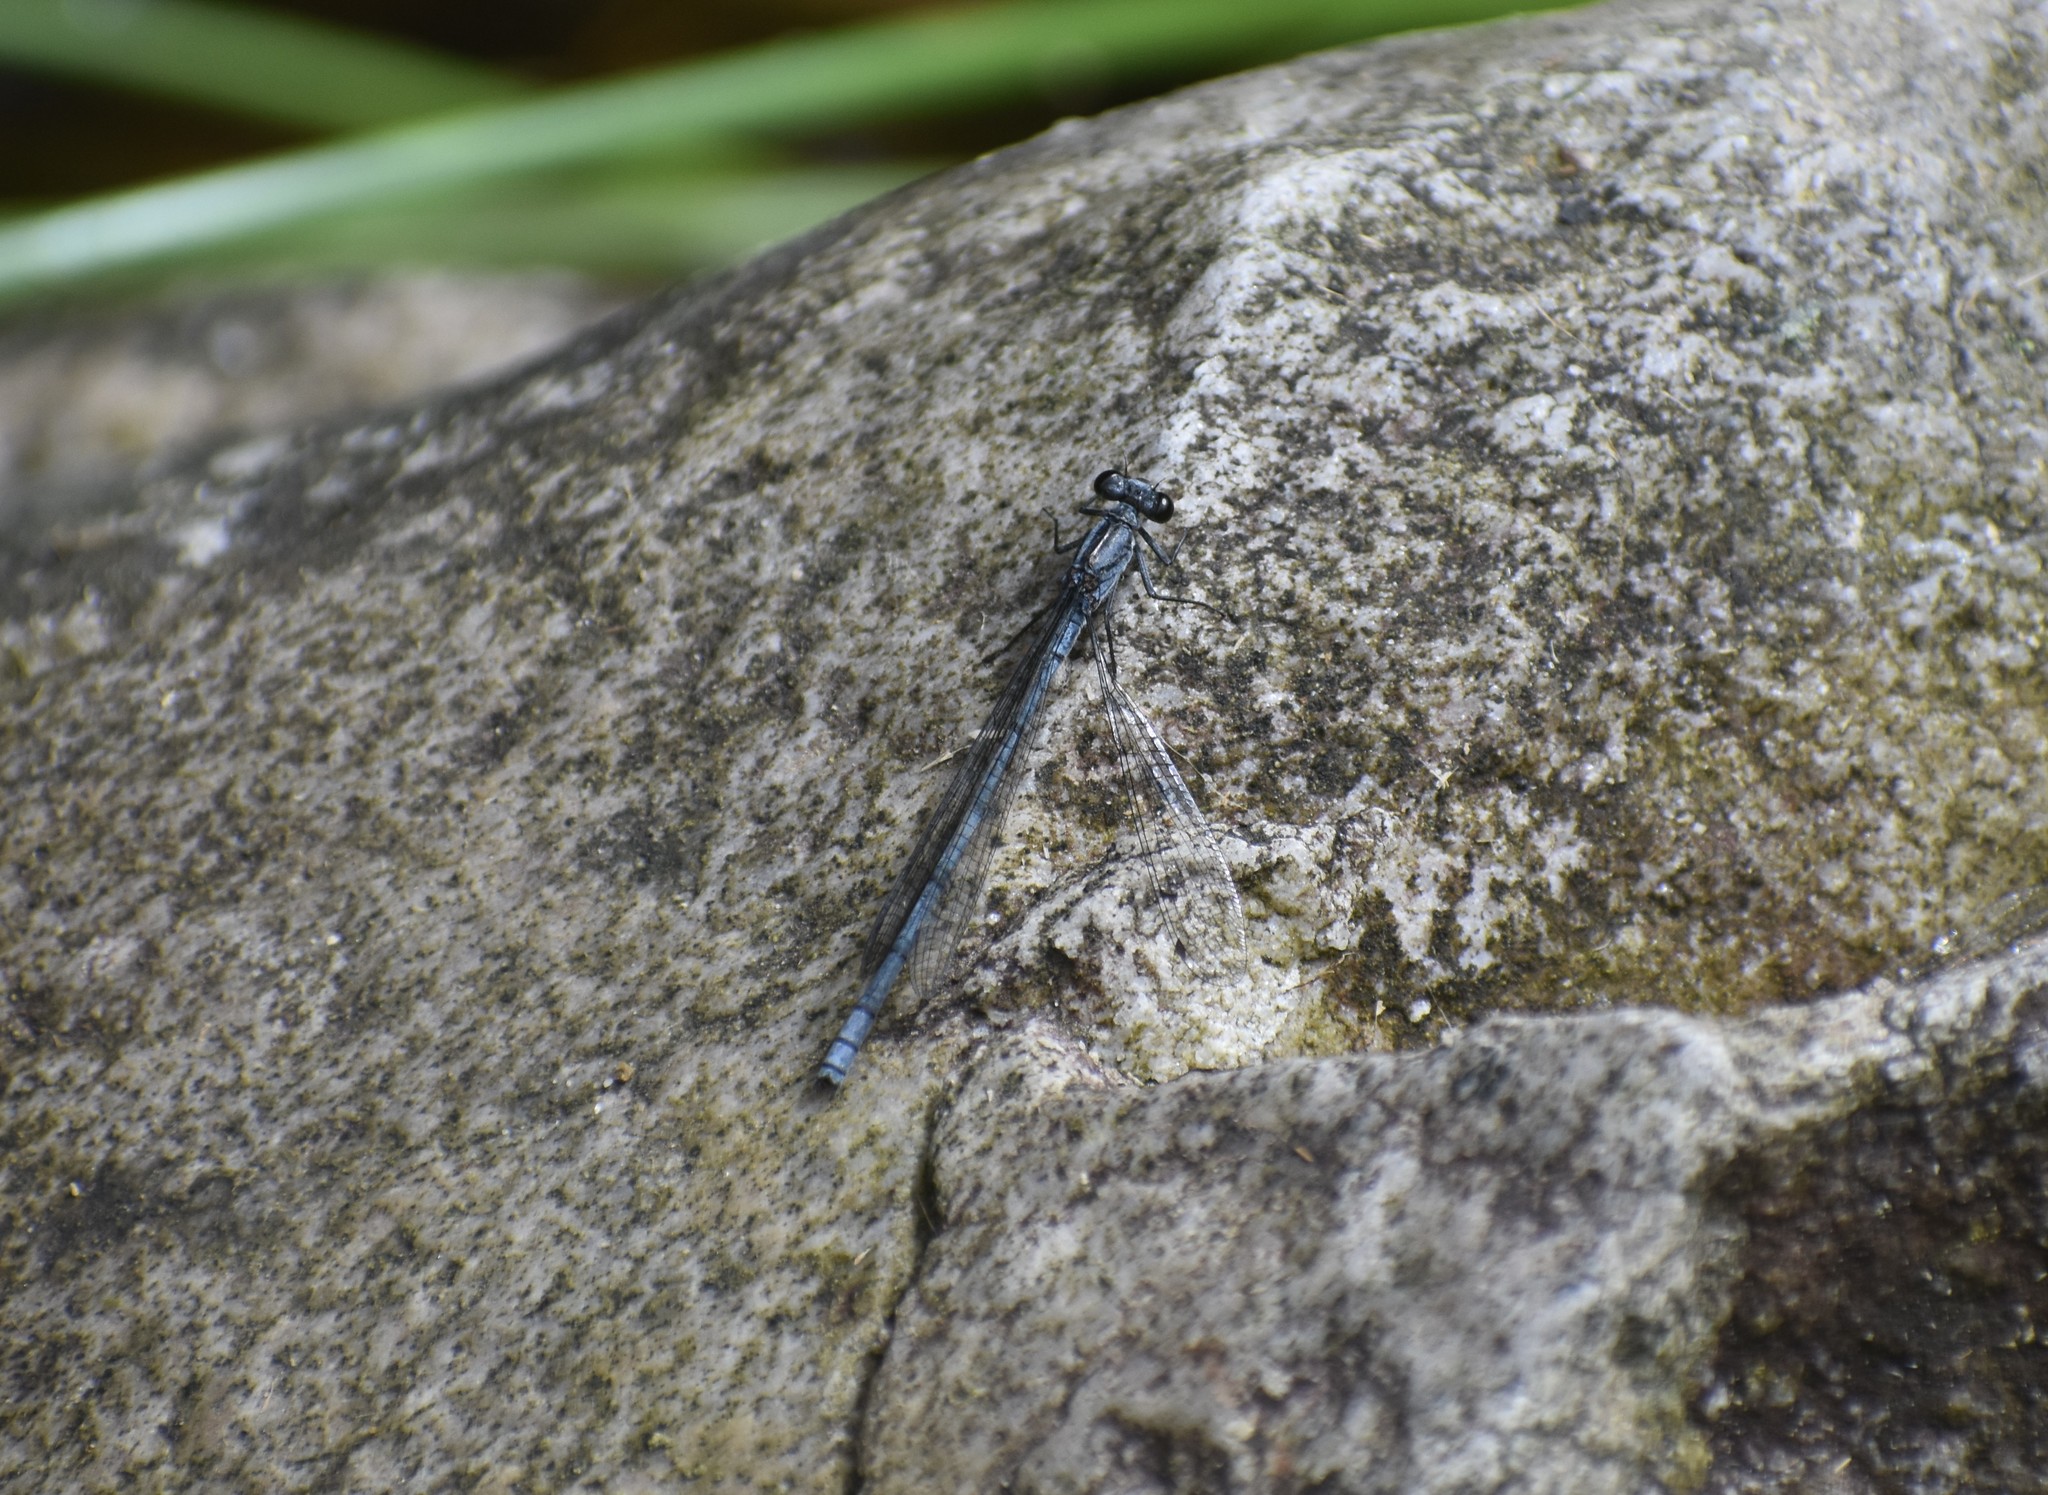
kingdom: Animalia
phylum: Arthropoda
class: Insecta
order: Odonata
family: Coenagrionidae
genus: Pseudagrion
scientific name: Pseudagrion furcigerum
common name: Palmiet sprite
